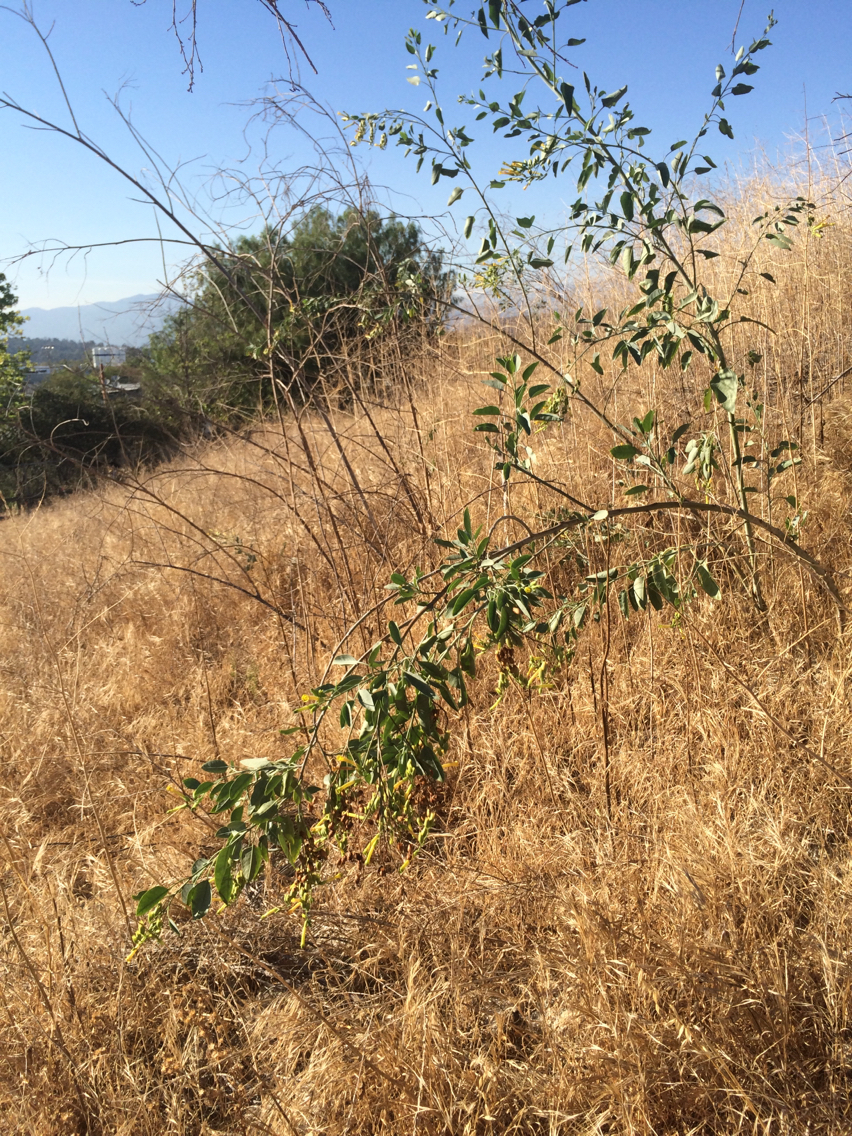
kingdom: Plantae
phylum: Tracheophyta
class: Magnoliopsida
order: Solanales
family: Solanaceae
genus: Nicotiana
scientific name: Nicotiana glauca
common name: Tree tobacco
